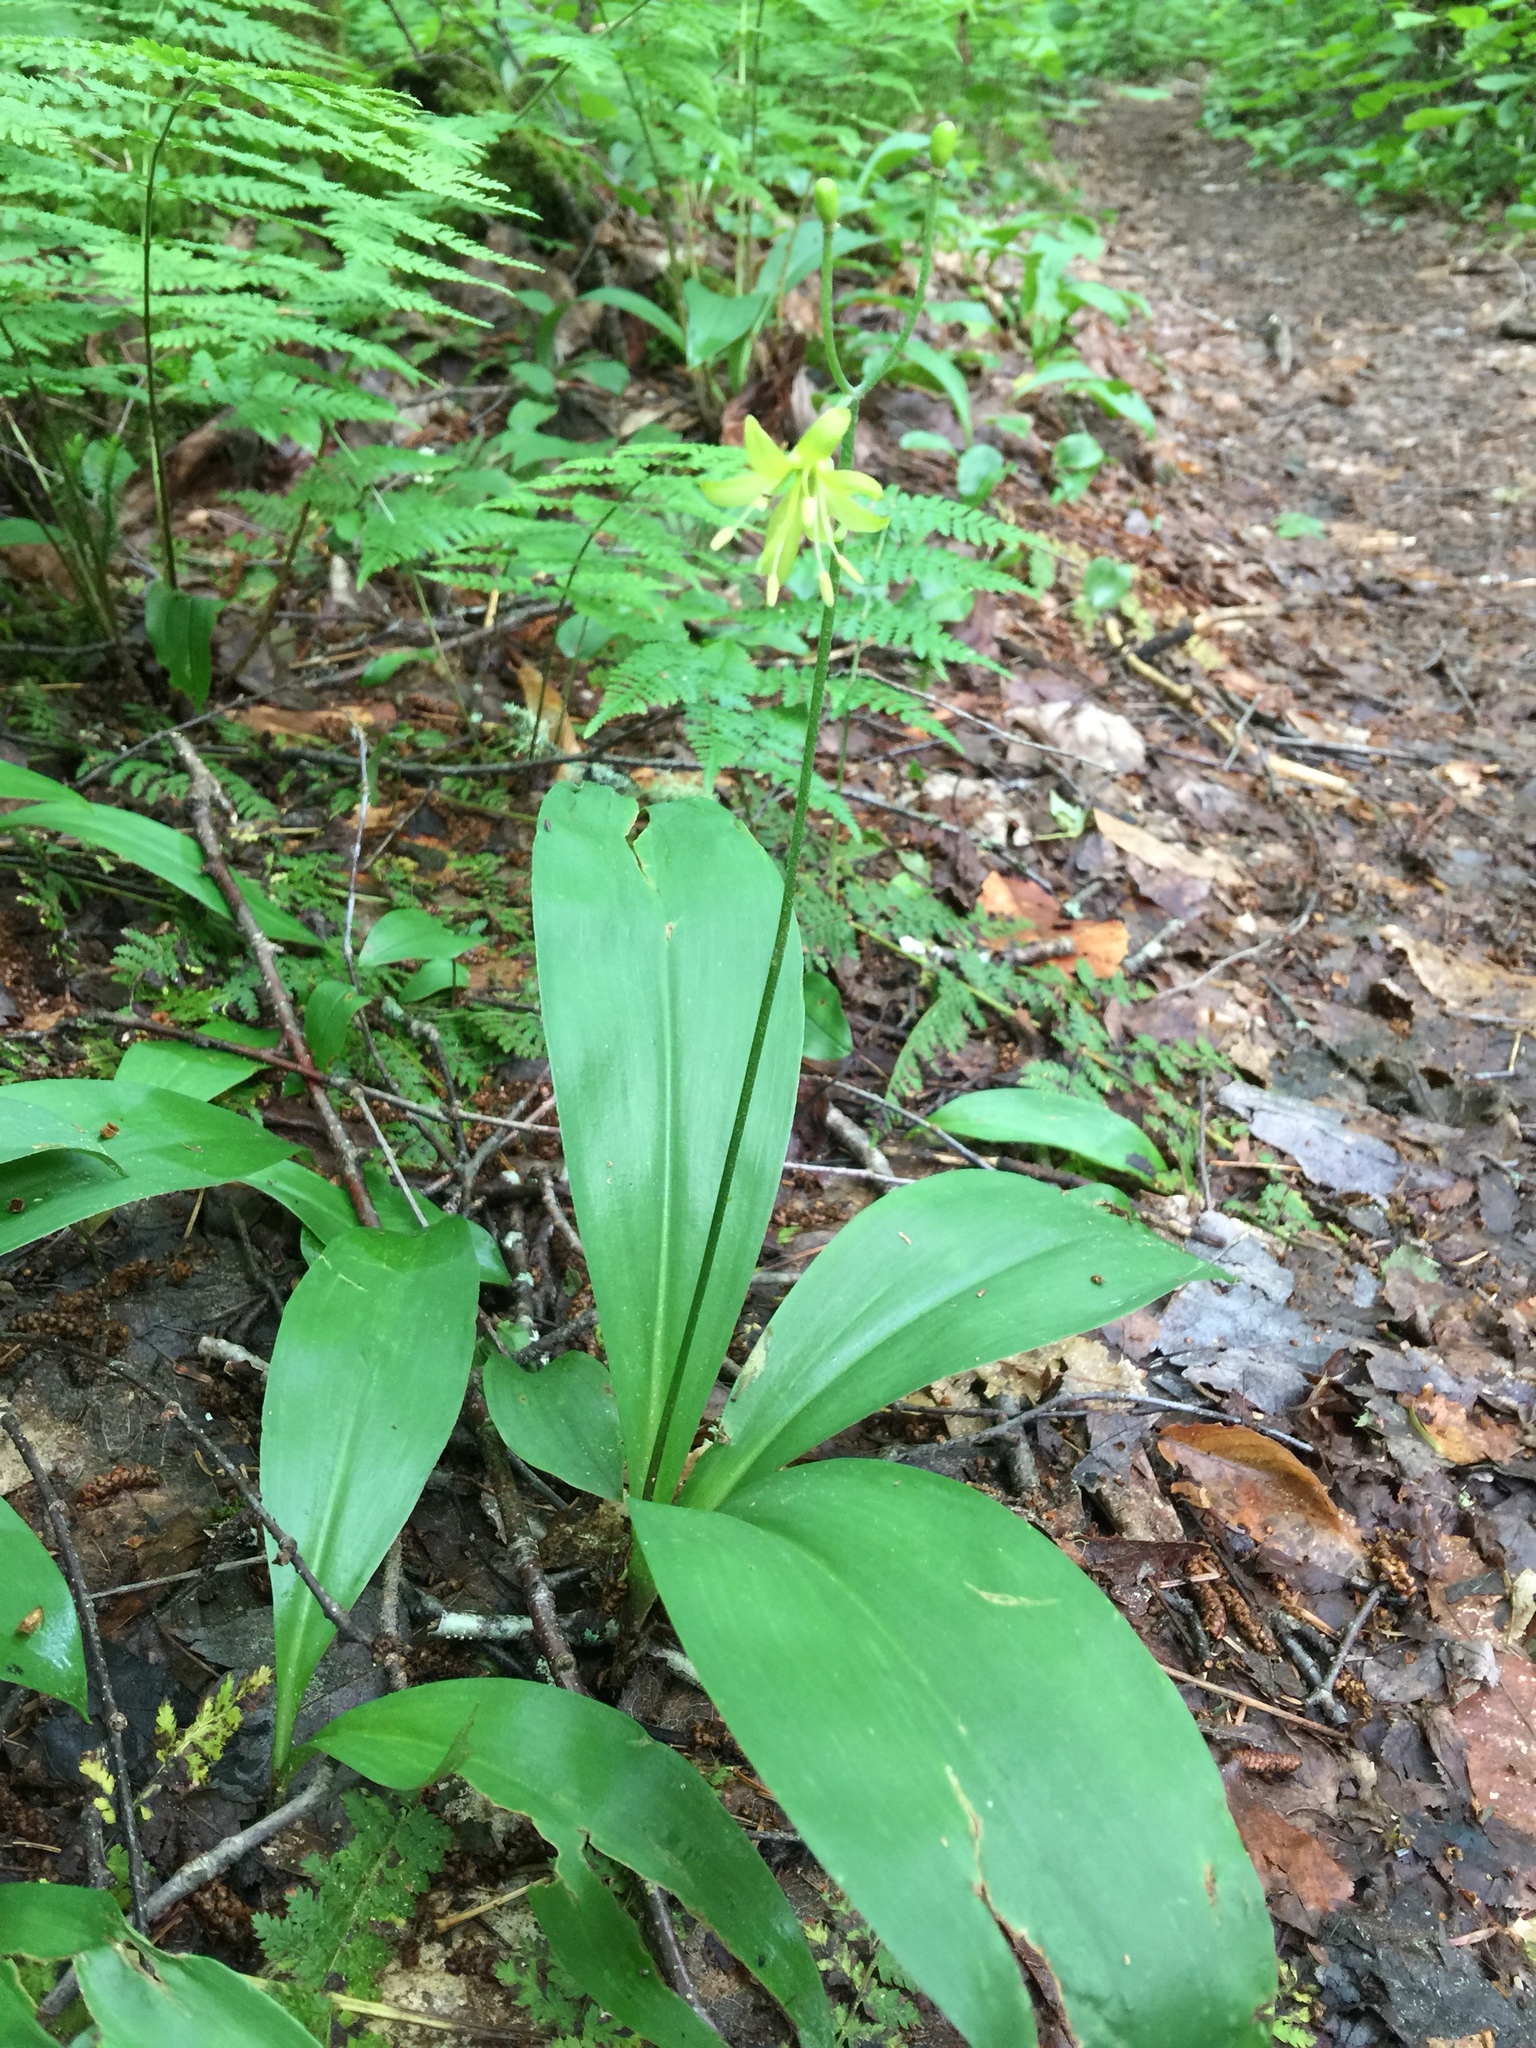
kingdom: Plantae
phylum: Tracheophyta
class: Liliopsida
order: Liliales
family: Liliaceae
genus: Clintonia
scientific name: Clintonia borealis
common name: Yellow clintonia
